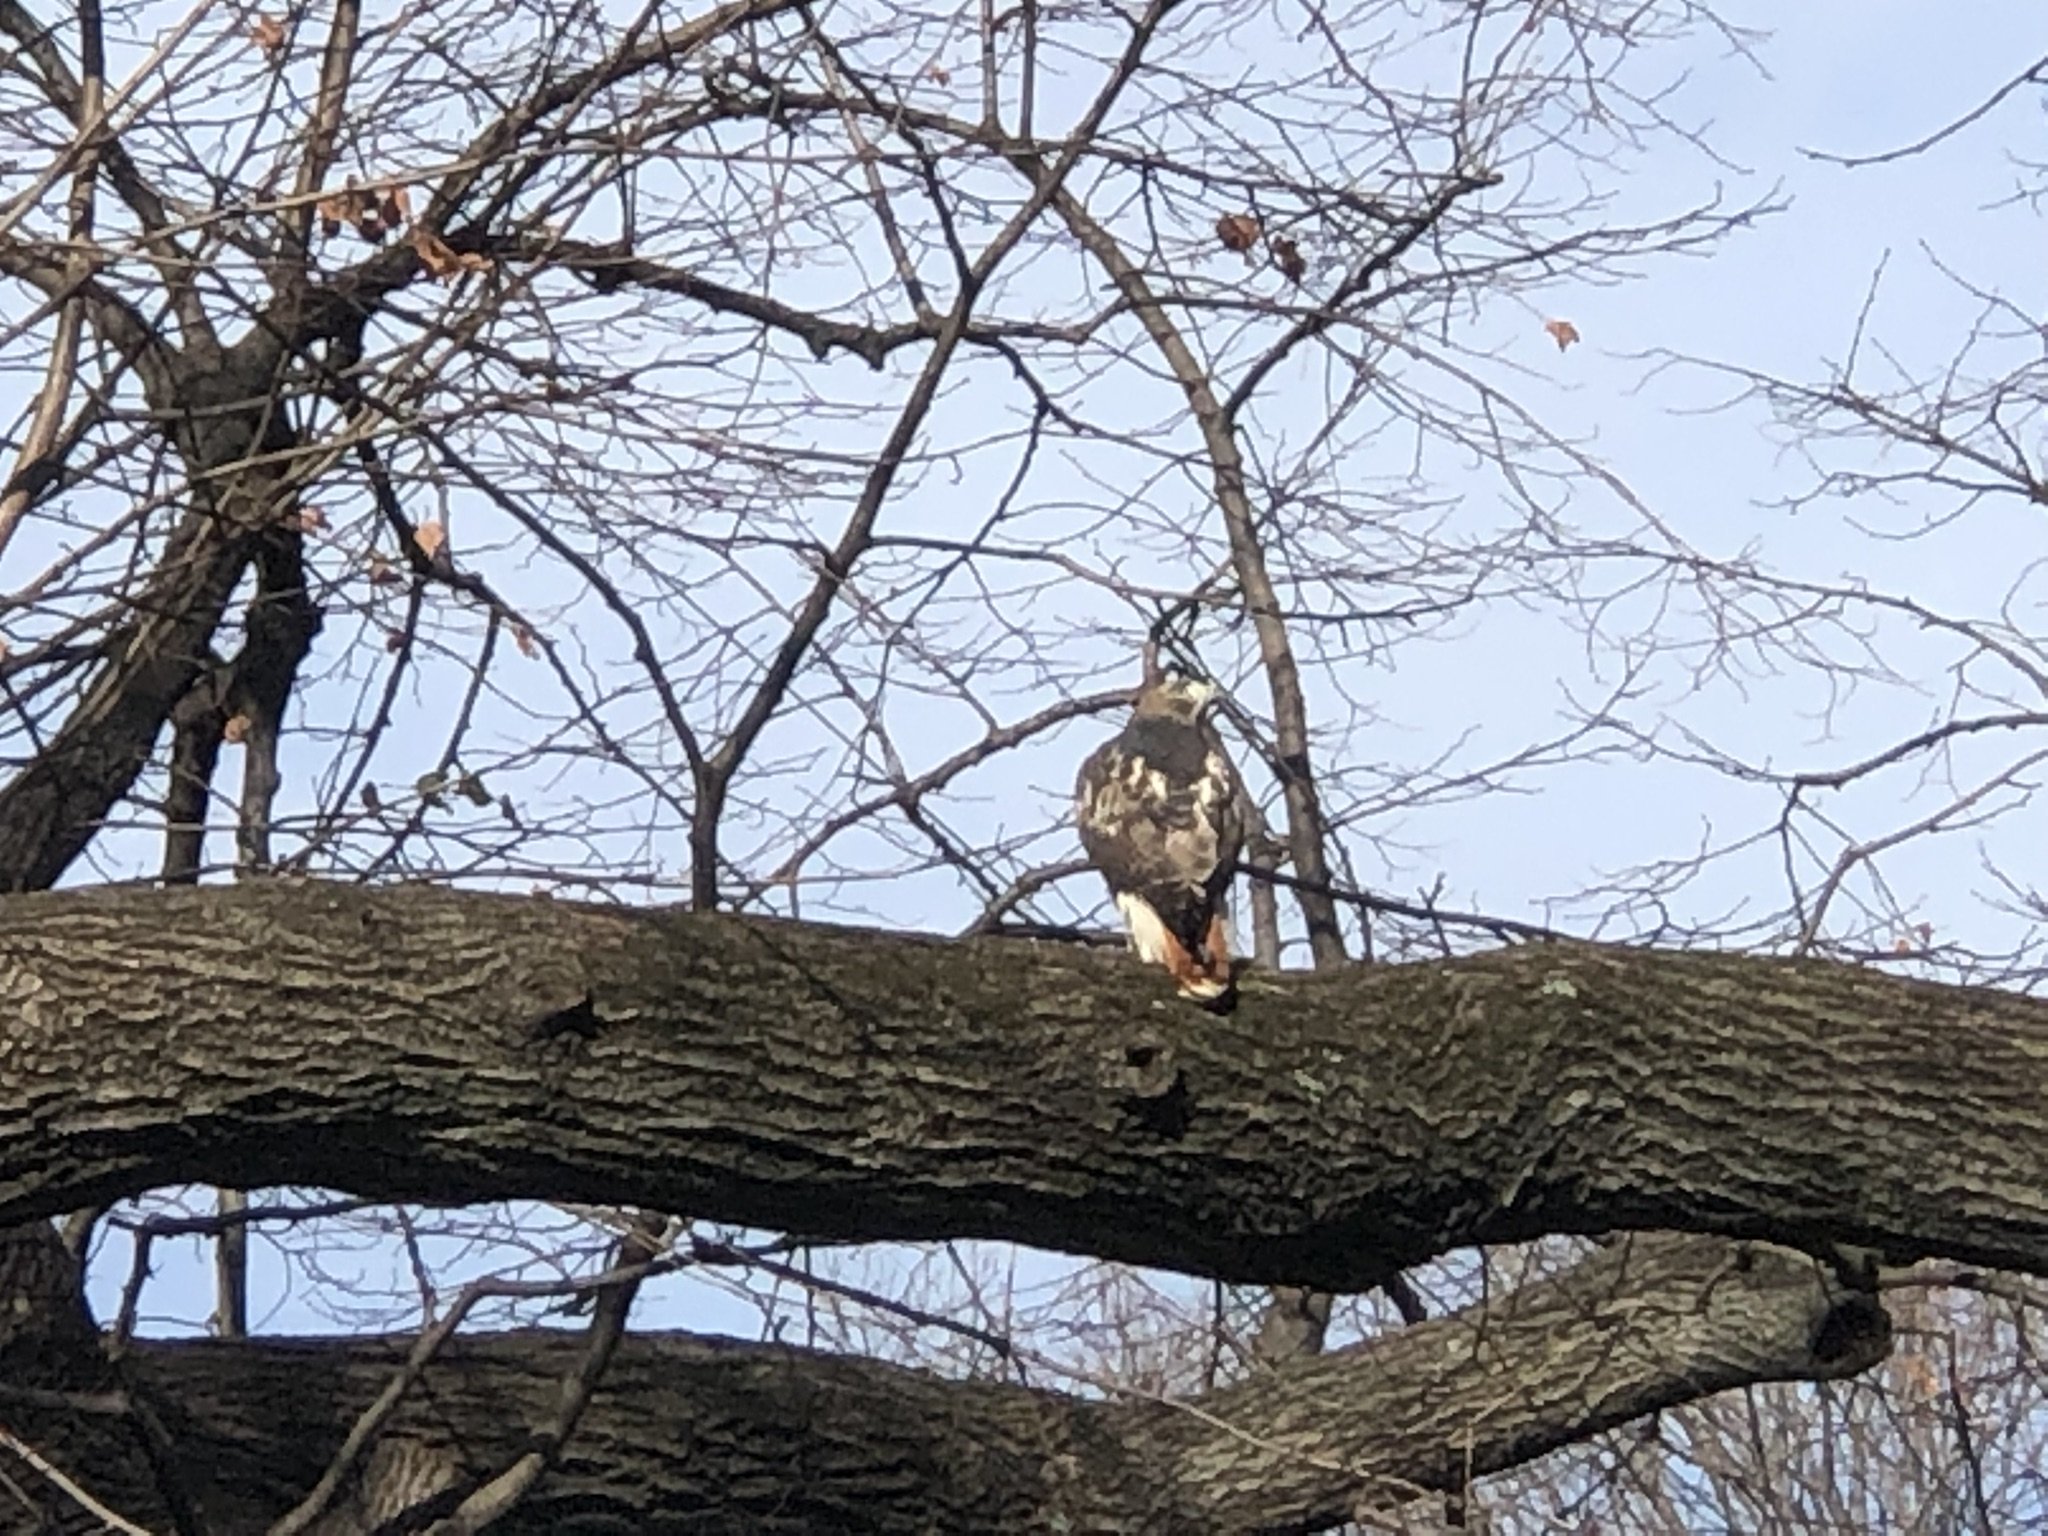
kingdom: Animalia
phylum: Chordata
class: Aves
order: Accipitriformes
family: Accipitridae
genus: Buteo
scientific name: Buteo jamaicensis
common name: Red-tailed hawk
